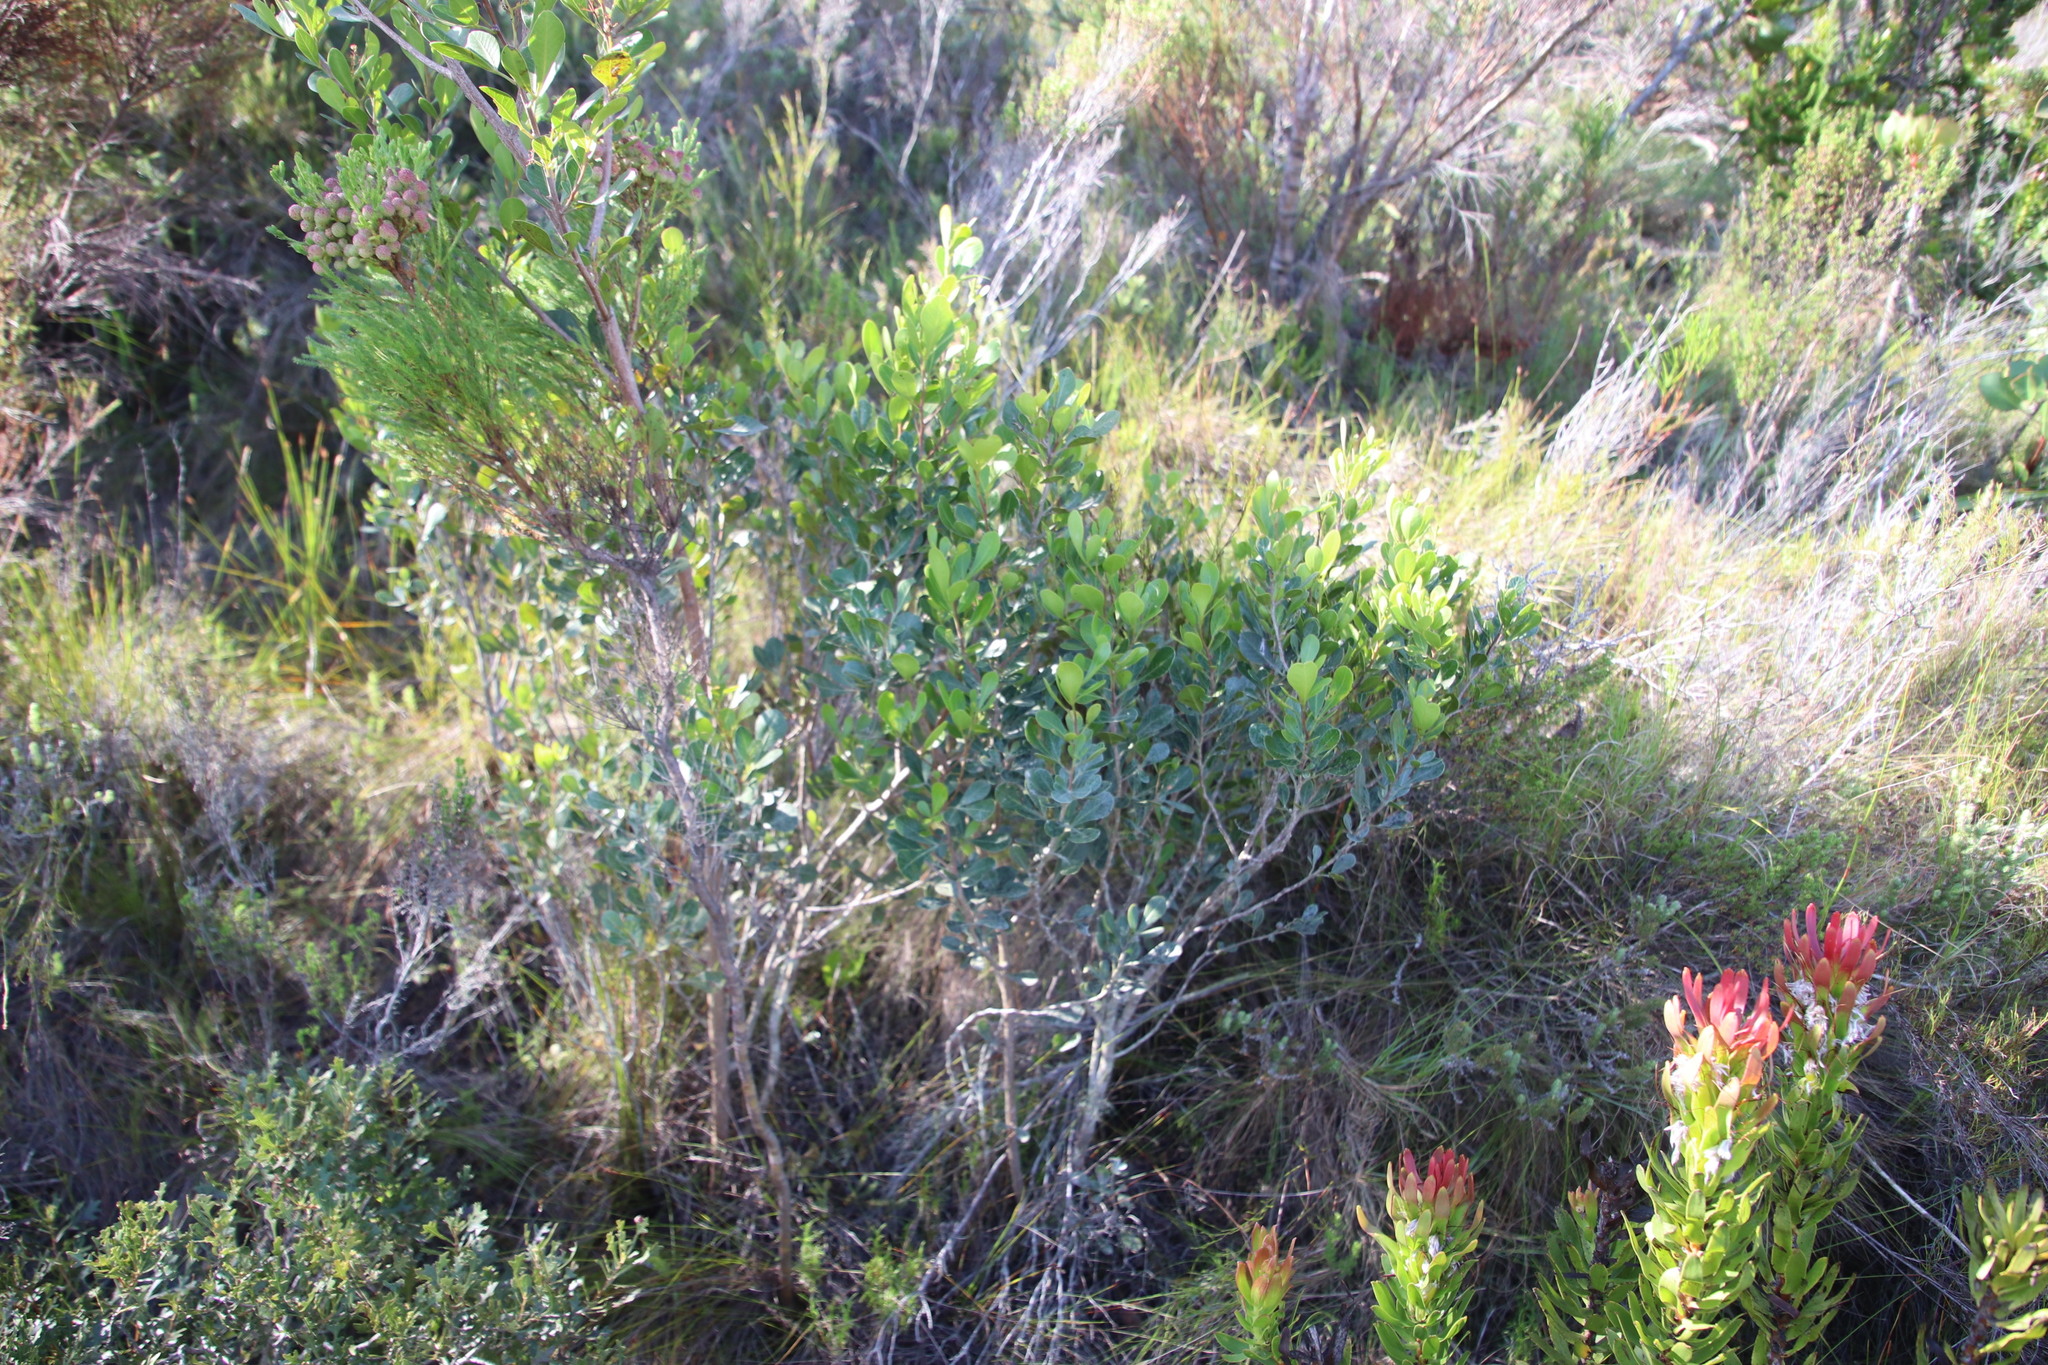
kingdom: Plantae
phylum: Tracheophyta
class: Magnoliopsida
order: Sapindales
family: Anacardiaceae
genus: Searsia
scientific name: Searsia lucida
